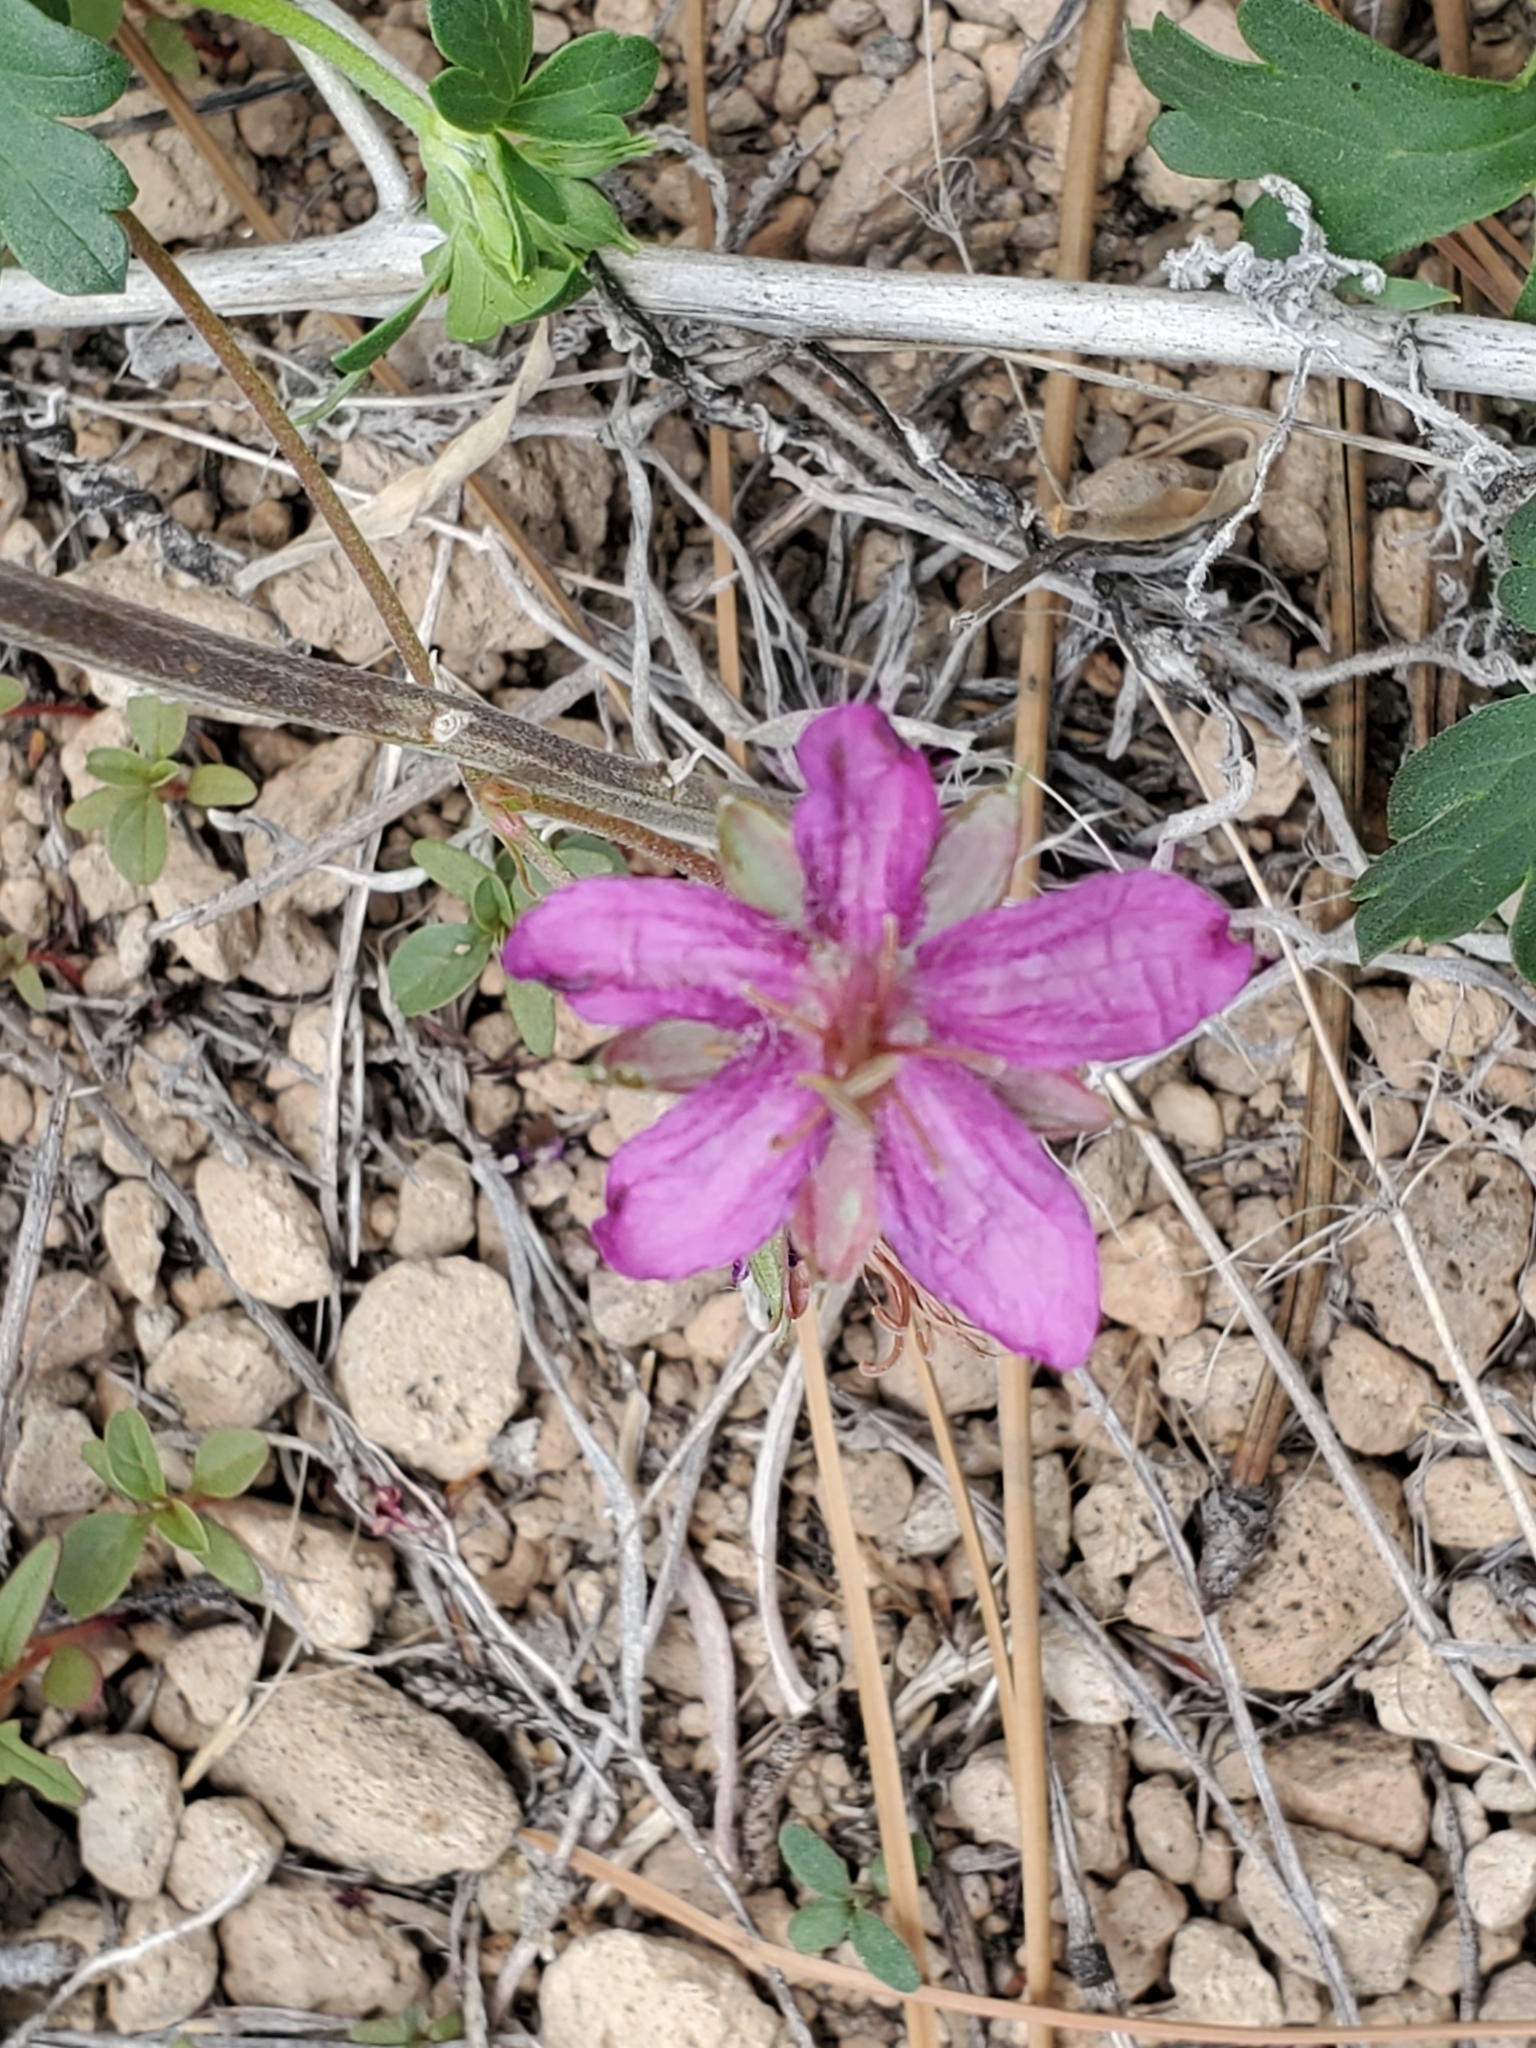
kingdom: Plantae
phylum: Tracheophyta
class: Magnoliopsida
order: Geraniales
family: Geraniaceae
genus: Geranium
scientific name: Geranium caespitosum
